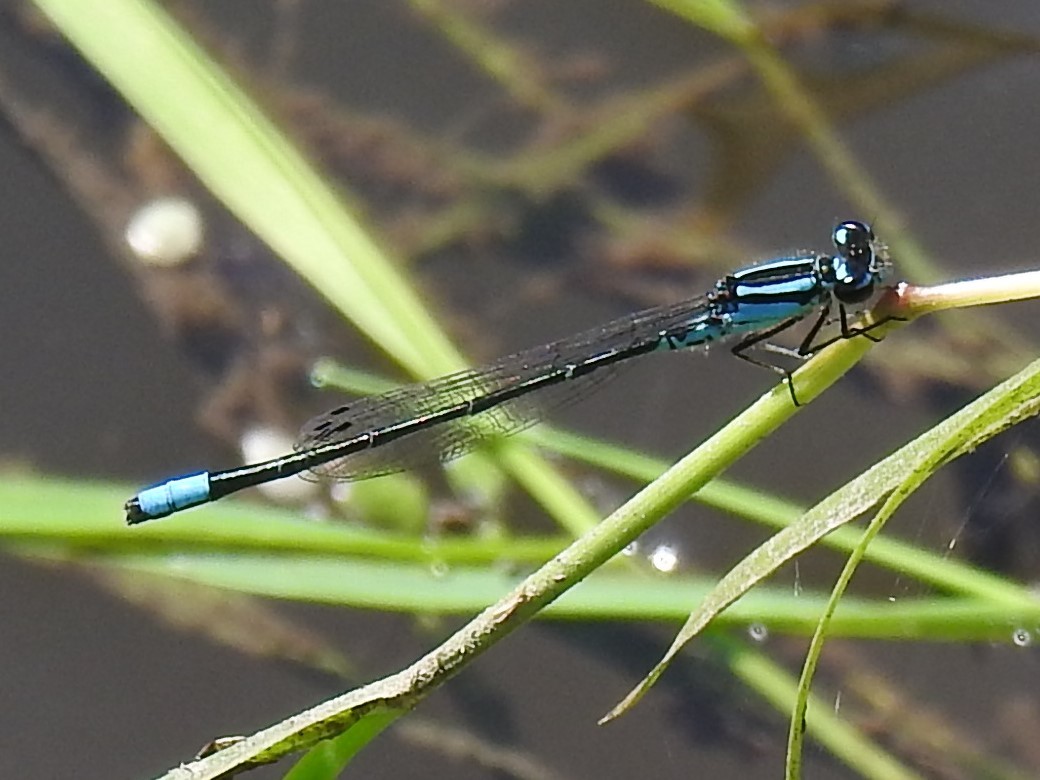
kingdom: Animalia
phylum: Arthropoda
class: Insecta
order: Odonata
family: Coenagrionidae
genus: Enallagma
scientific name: Enallagma geminatum
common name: Skimming bluet
